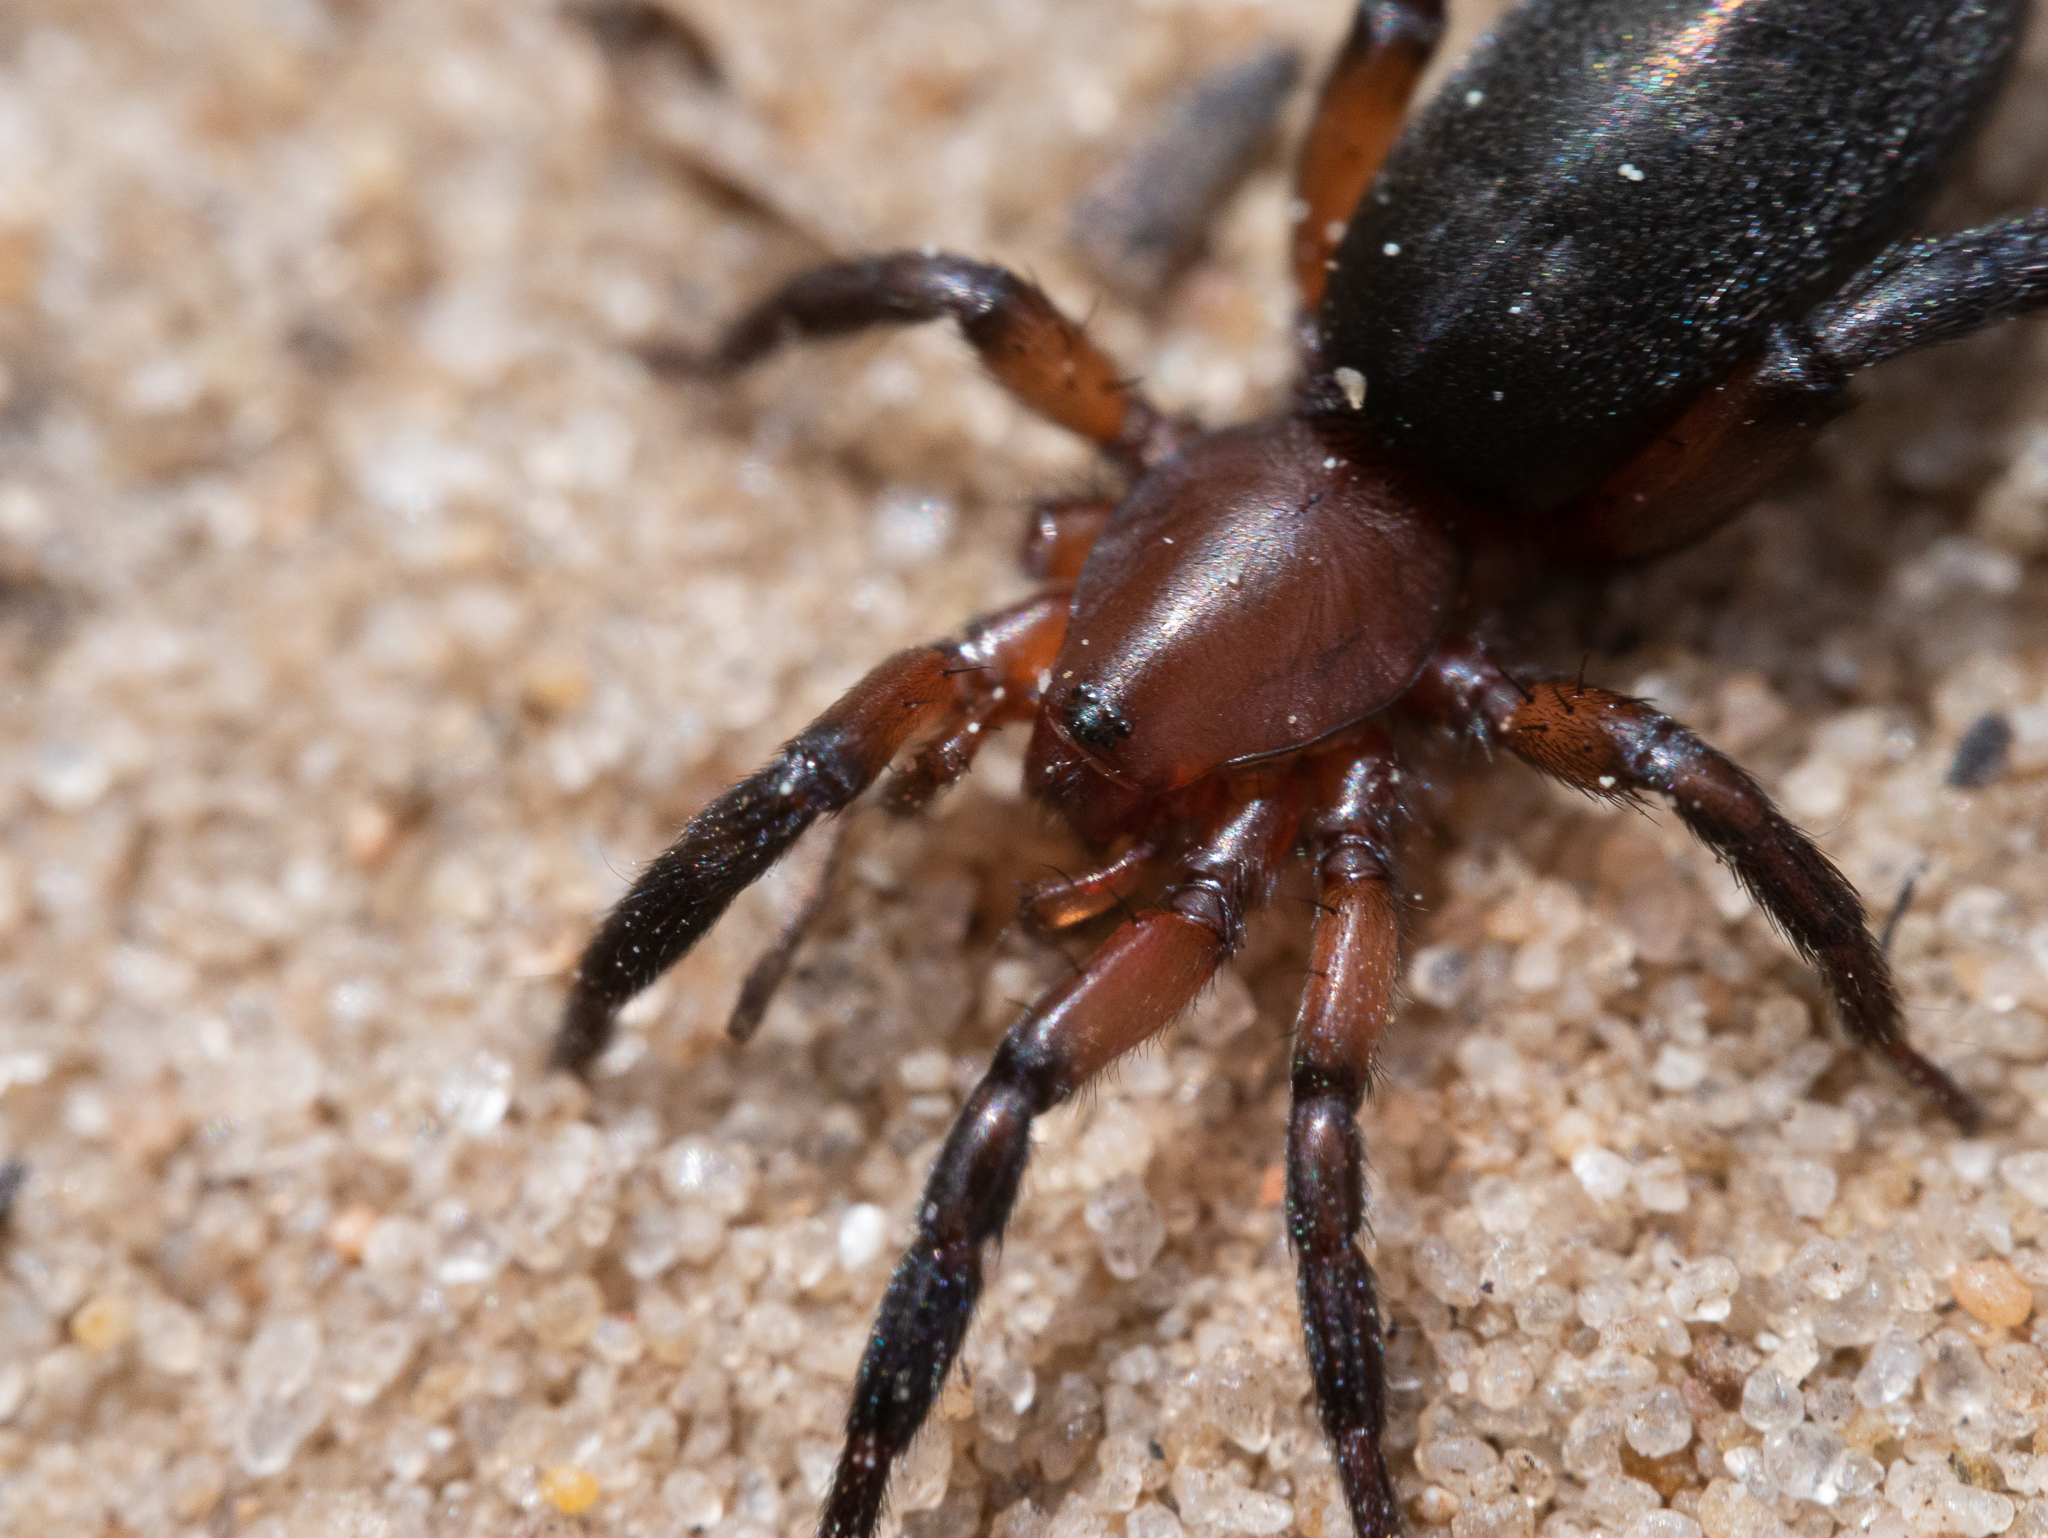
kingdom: Animalia
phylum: Arthropoda
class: Arachnida
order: Araneae
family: Gnaphosidae
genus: Zelotes
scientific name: Zelotes electus
